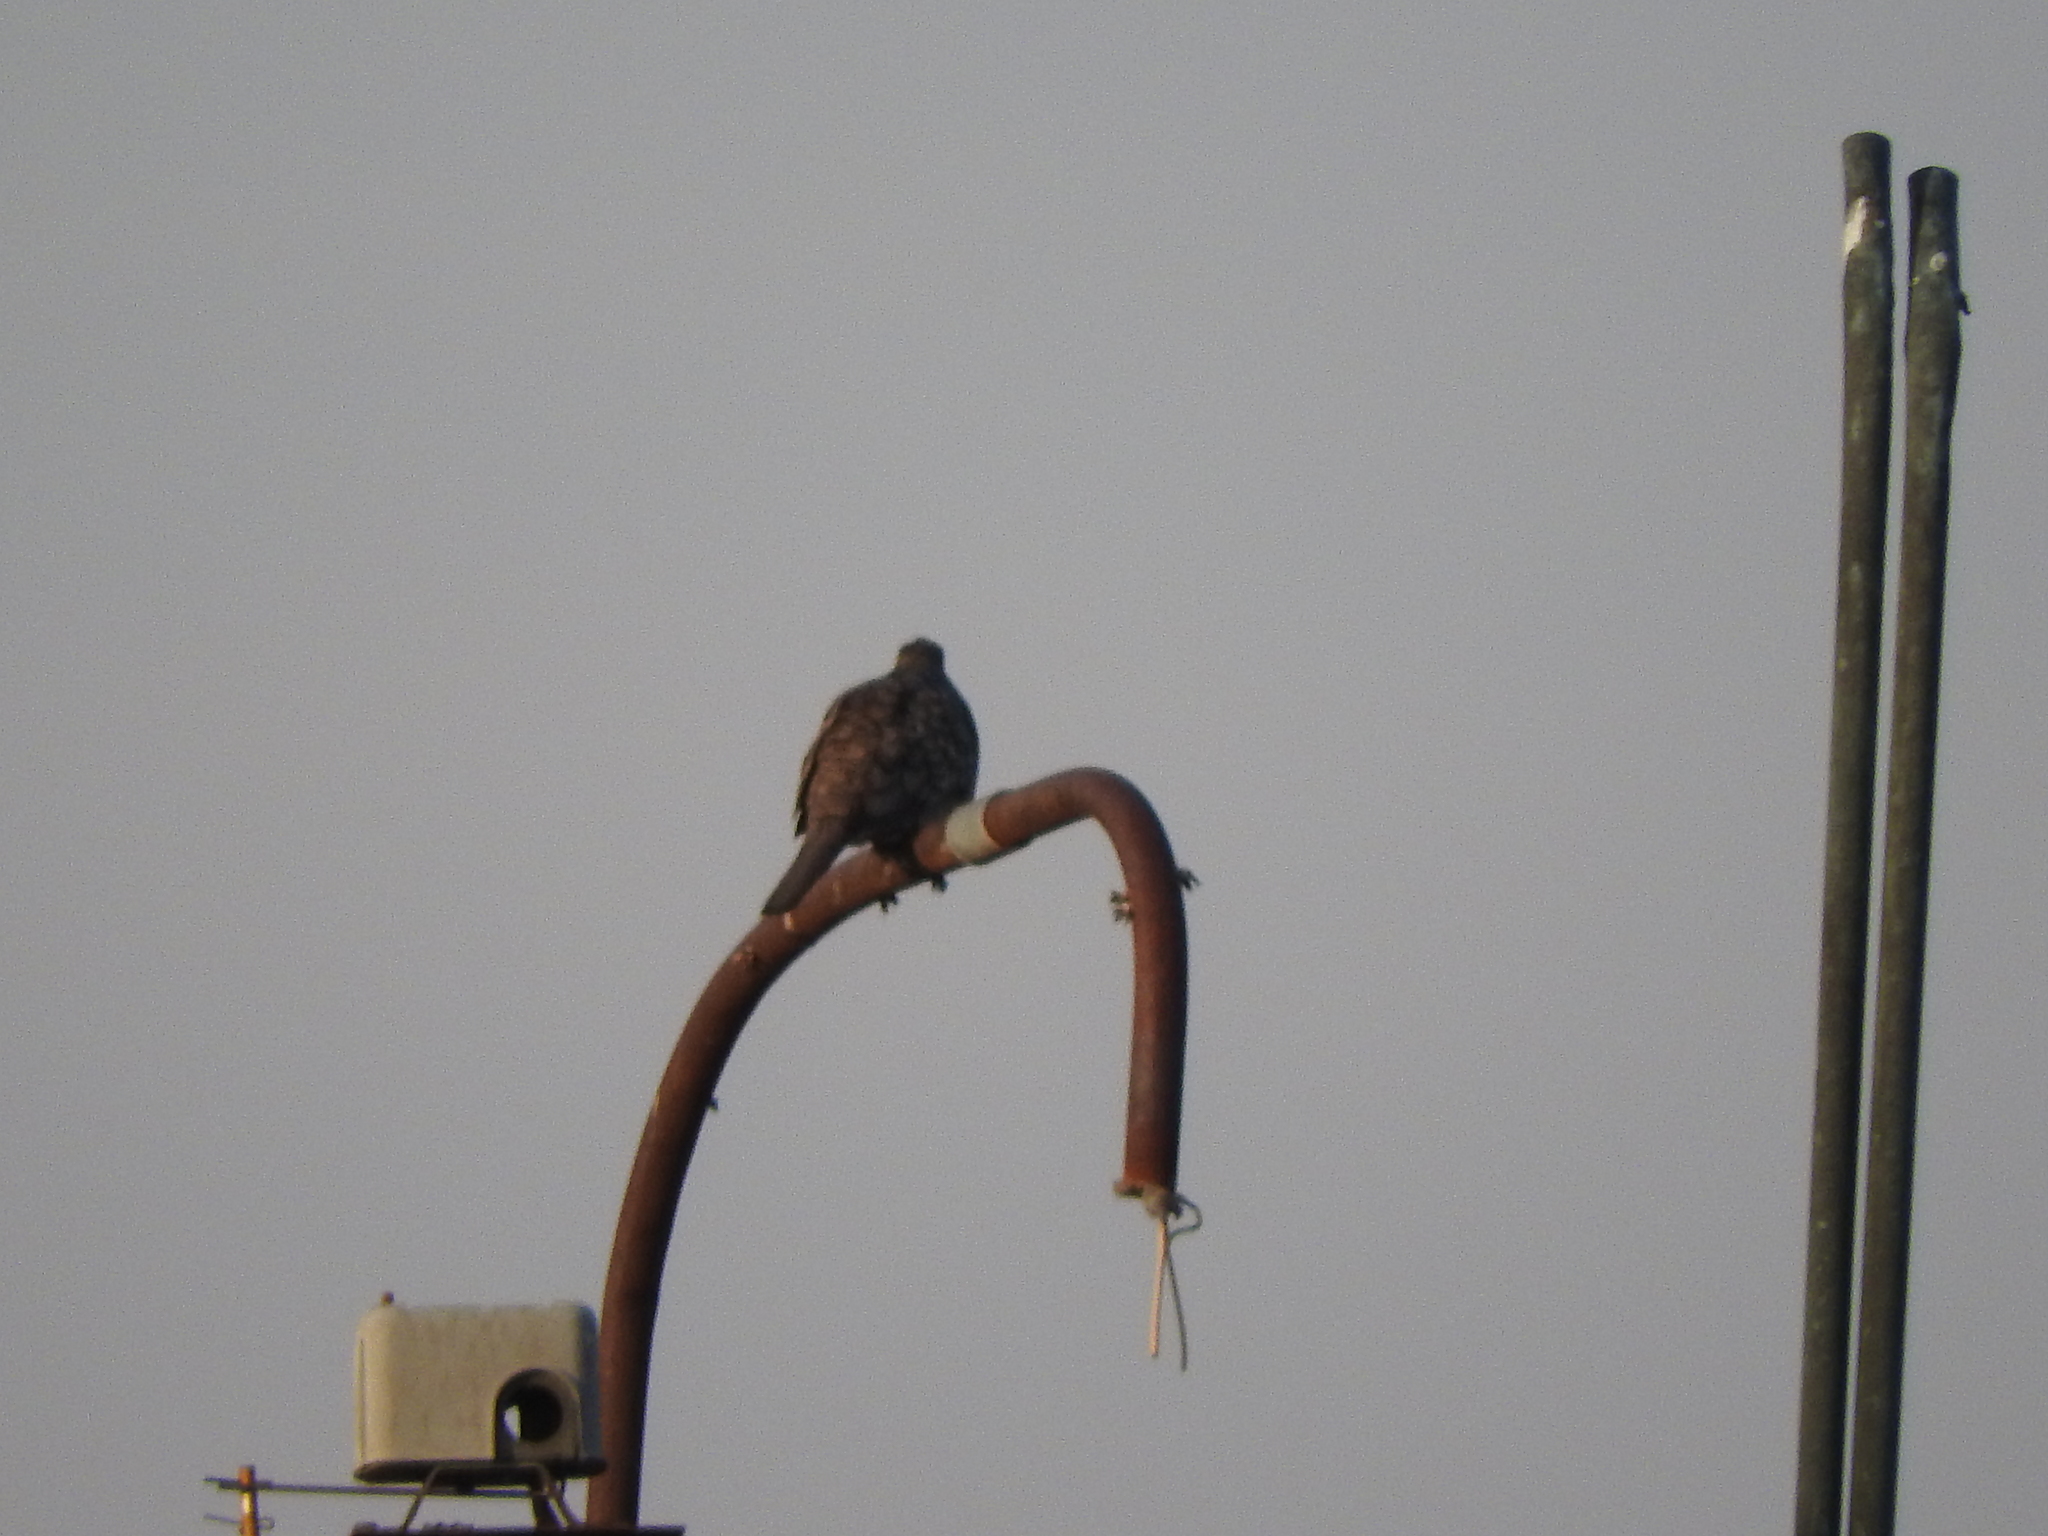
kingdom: Animalia
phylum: Chordata
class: Aves
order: Columbiformes
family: Columbidae
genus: Columbina
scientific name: Columbina inca
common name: Inca dove
